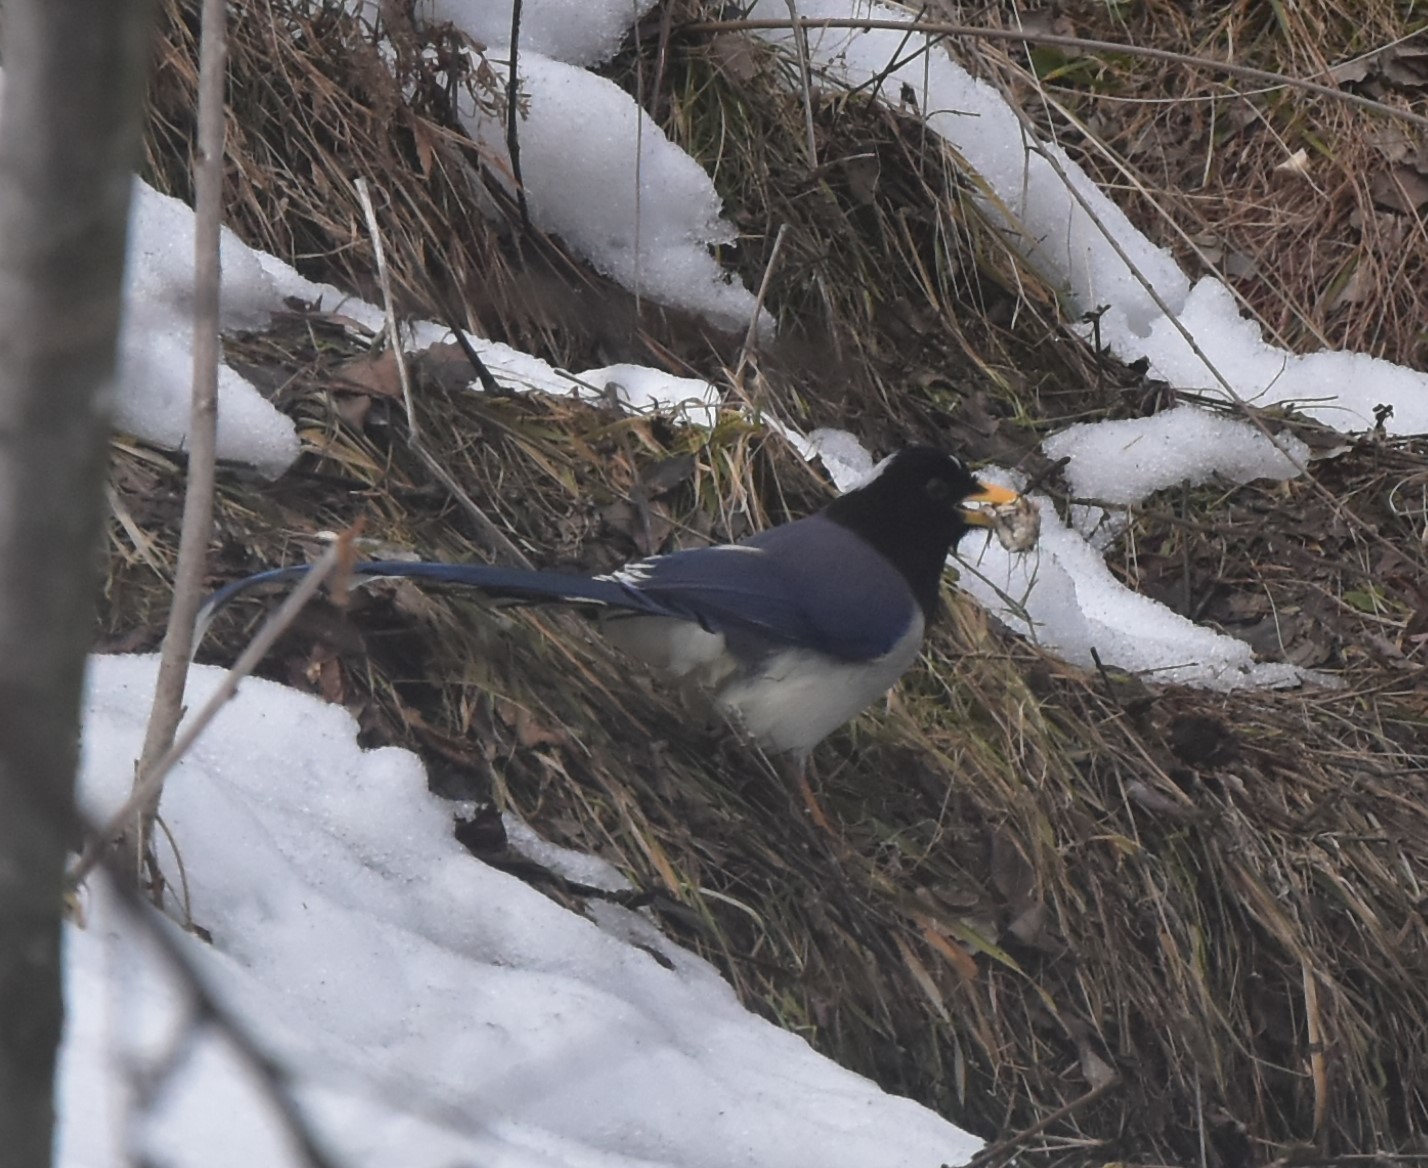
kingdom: Animalia
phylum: Chordata
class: Aves
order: Passeriformes
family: Corvidae
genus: Urocissa
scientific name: Urocissa flavirostris
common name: Yellow-billed blue magpie
